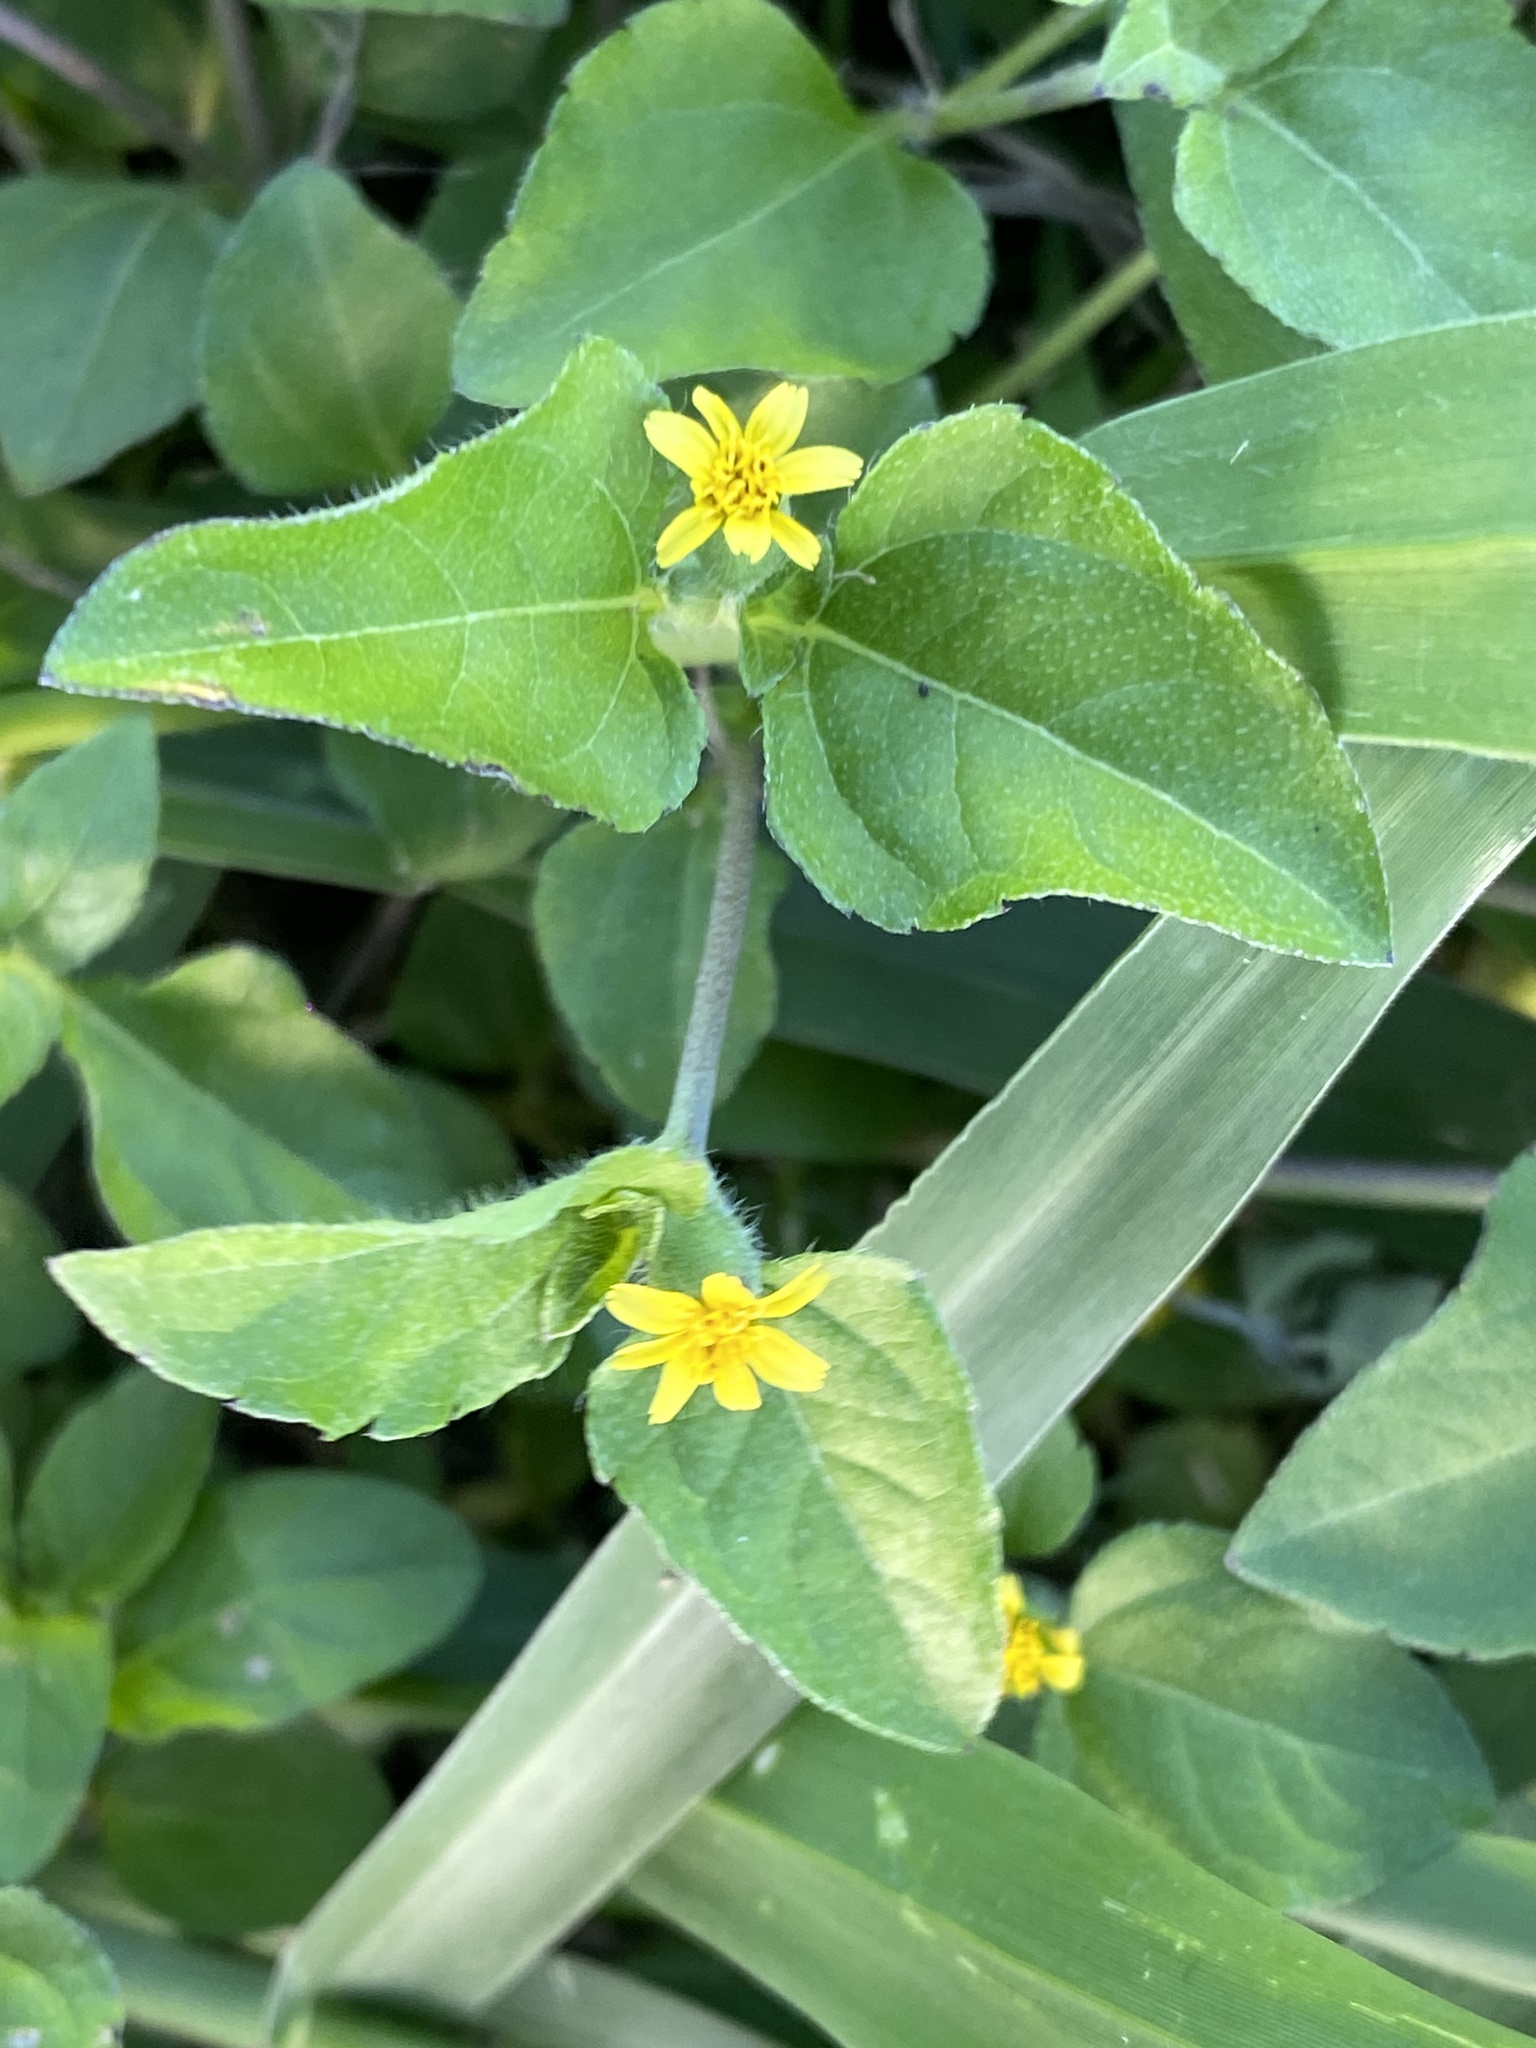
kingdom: Plantae
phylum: Tracheophyta
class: Magnoliopsida
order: Asterales
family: Asteraceae
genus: Calyptocarpus
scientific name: Calyptocarpus vialis
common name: Straggler daisy
